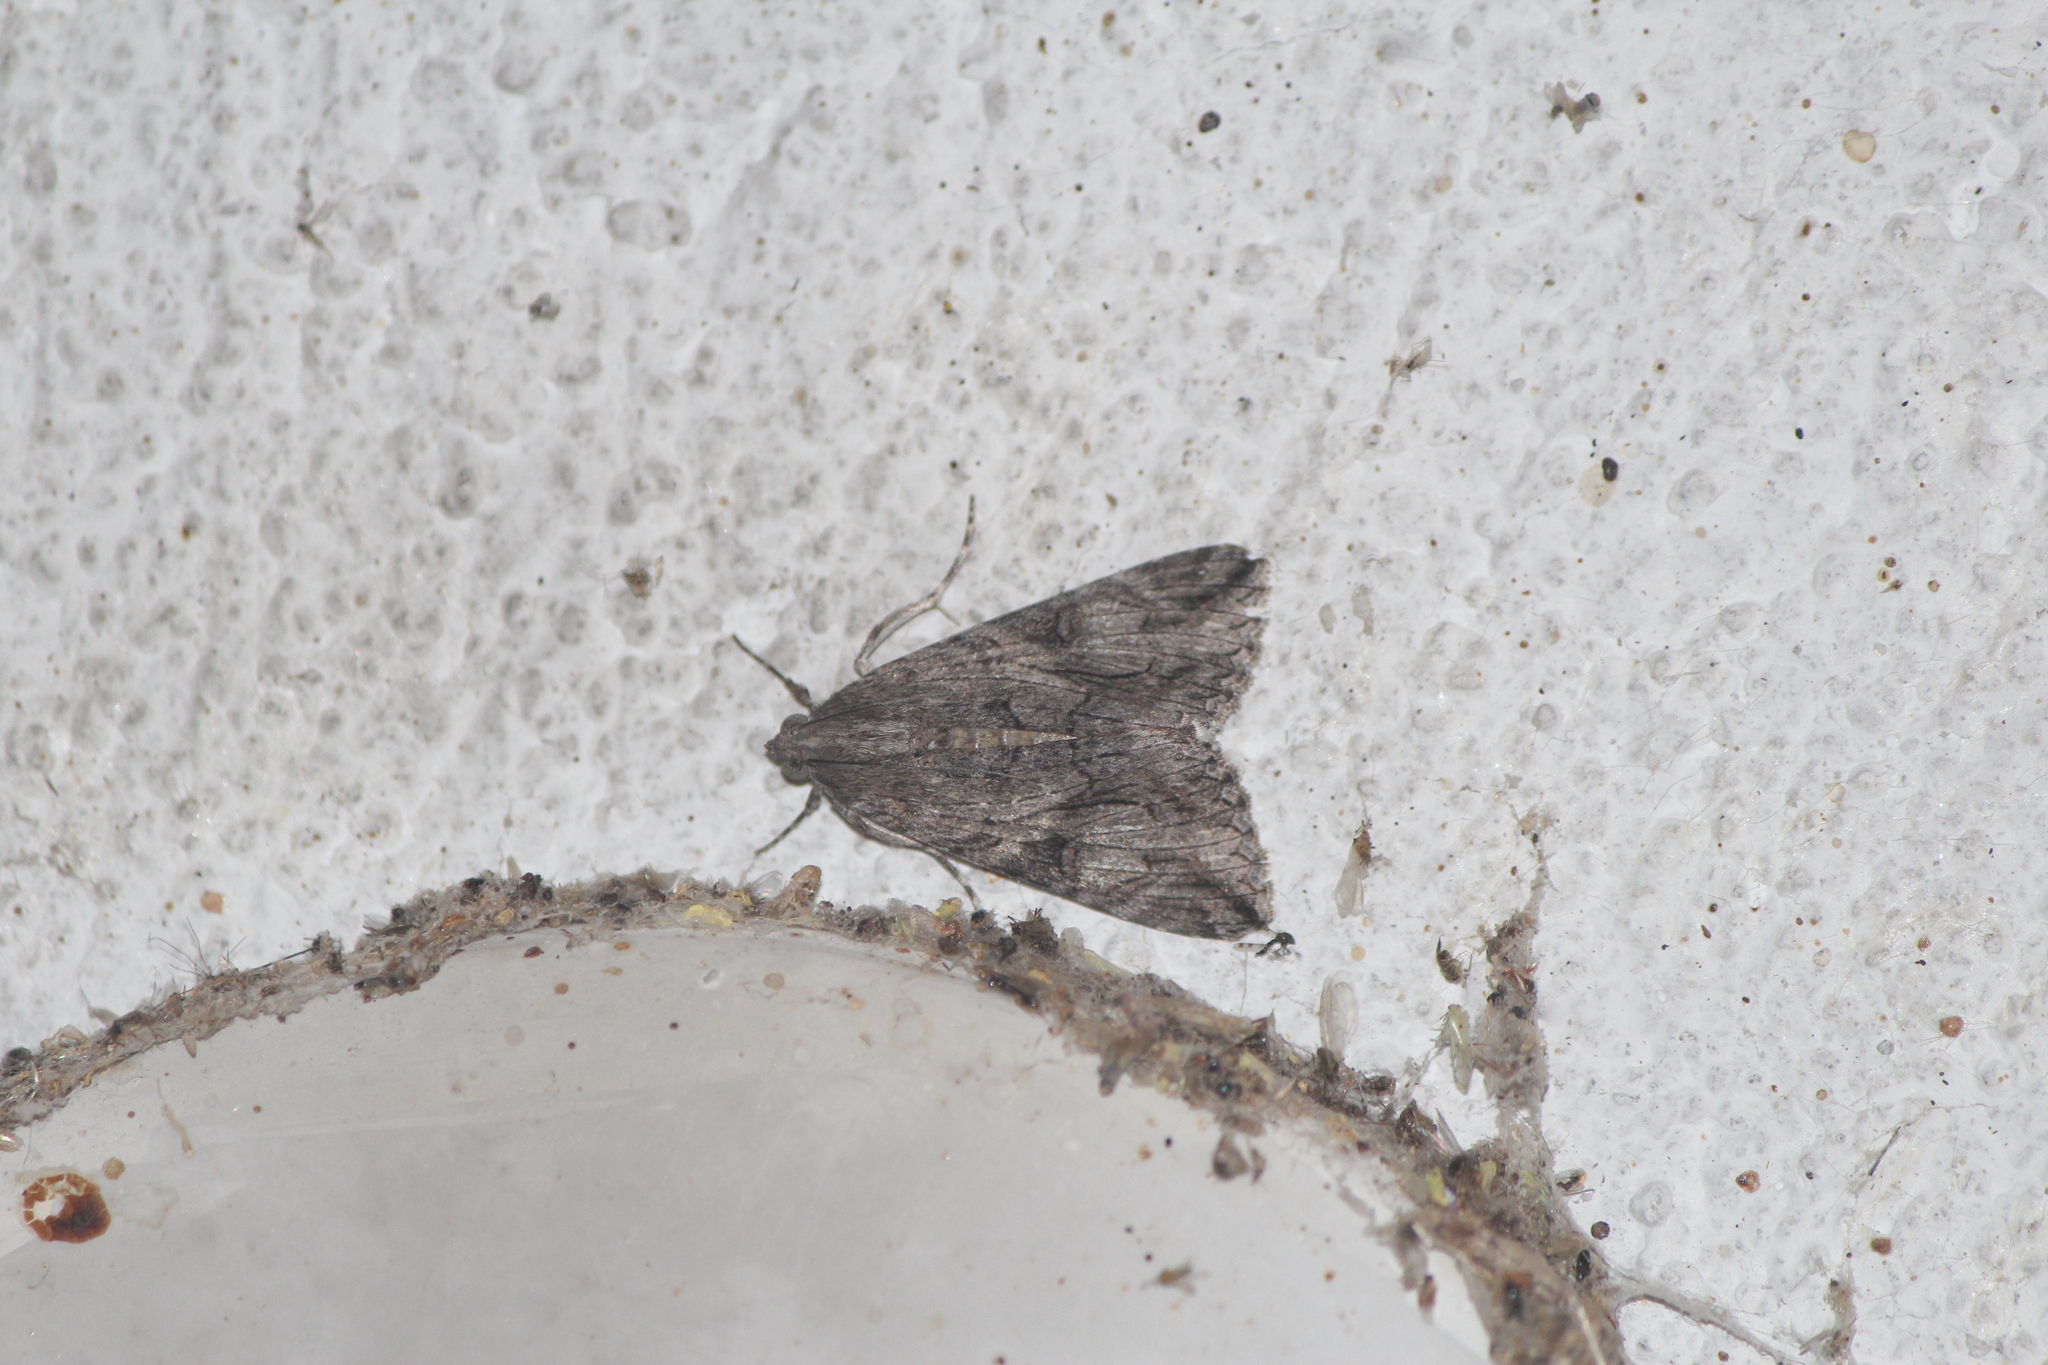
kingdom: Animalia
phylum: Arthropoda
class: Insecta
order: Lepidoptera
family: Erebidae
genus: Melipotis
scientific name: Melipotis jucunda
